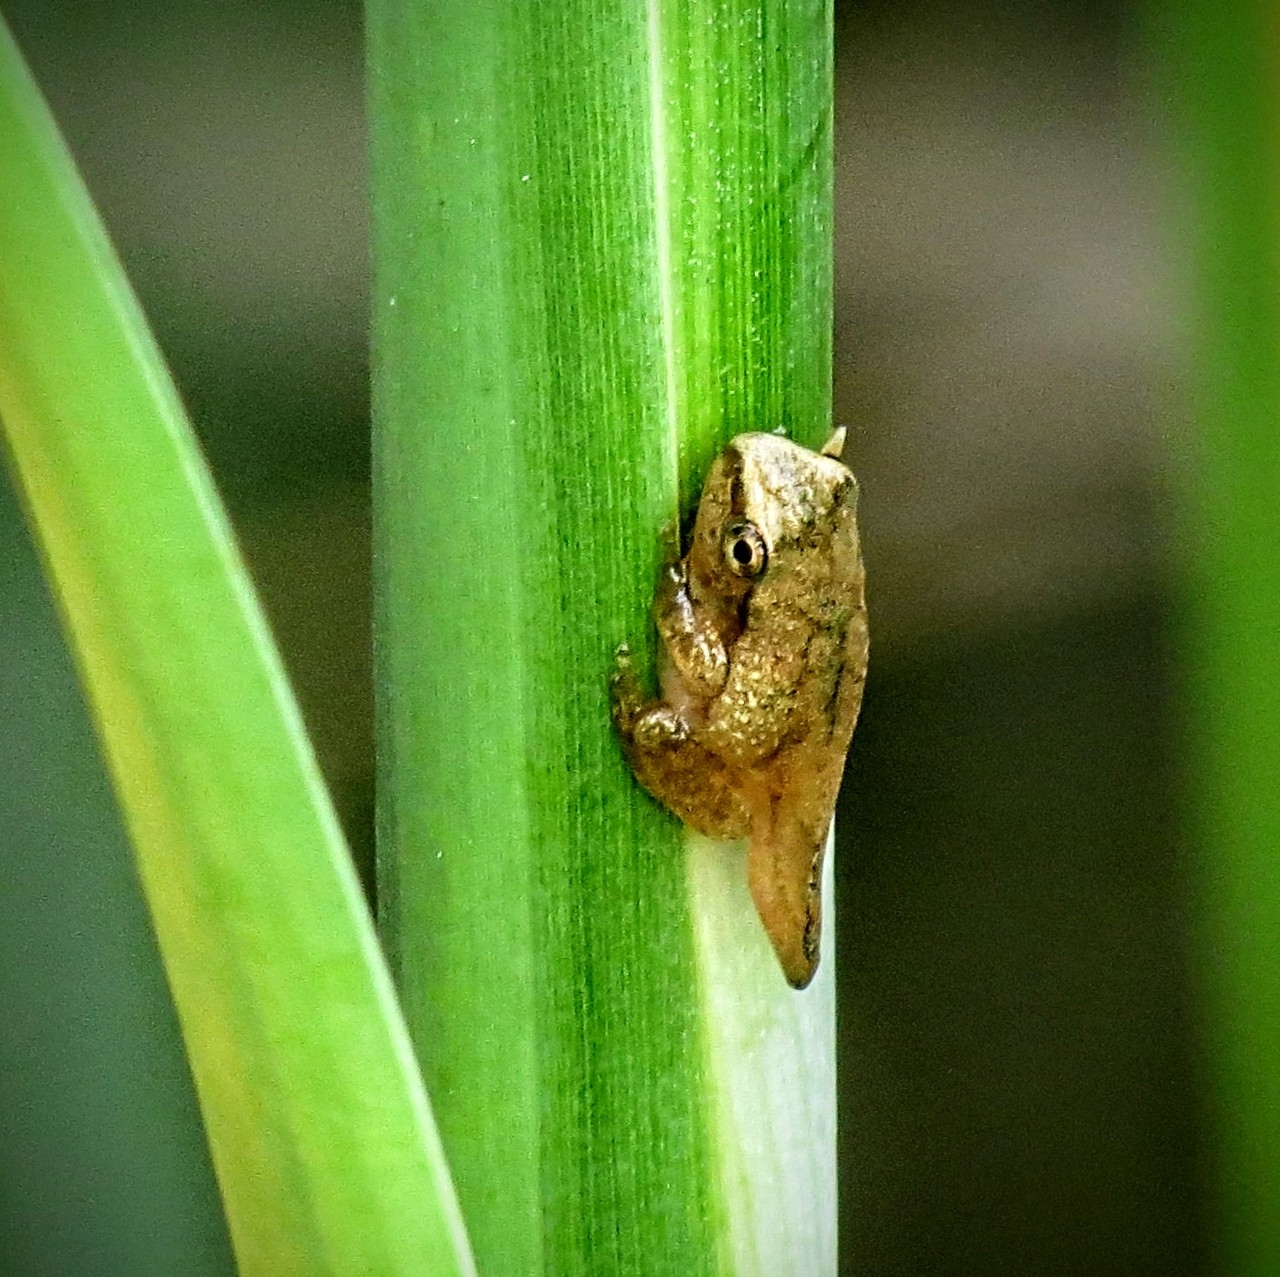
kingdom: Animalia
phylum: Chordata
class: Amphibia
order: Anura
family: Hylidae
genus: Pseudacris
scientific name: Pseudacris crucifer
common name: Spring peeper
